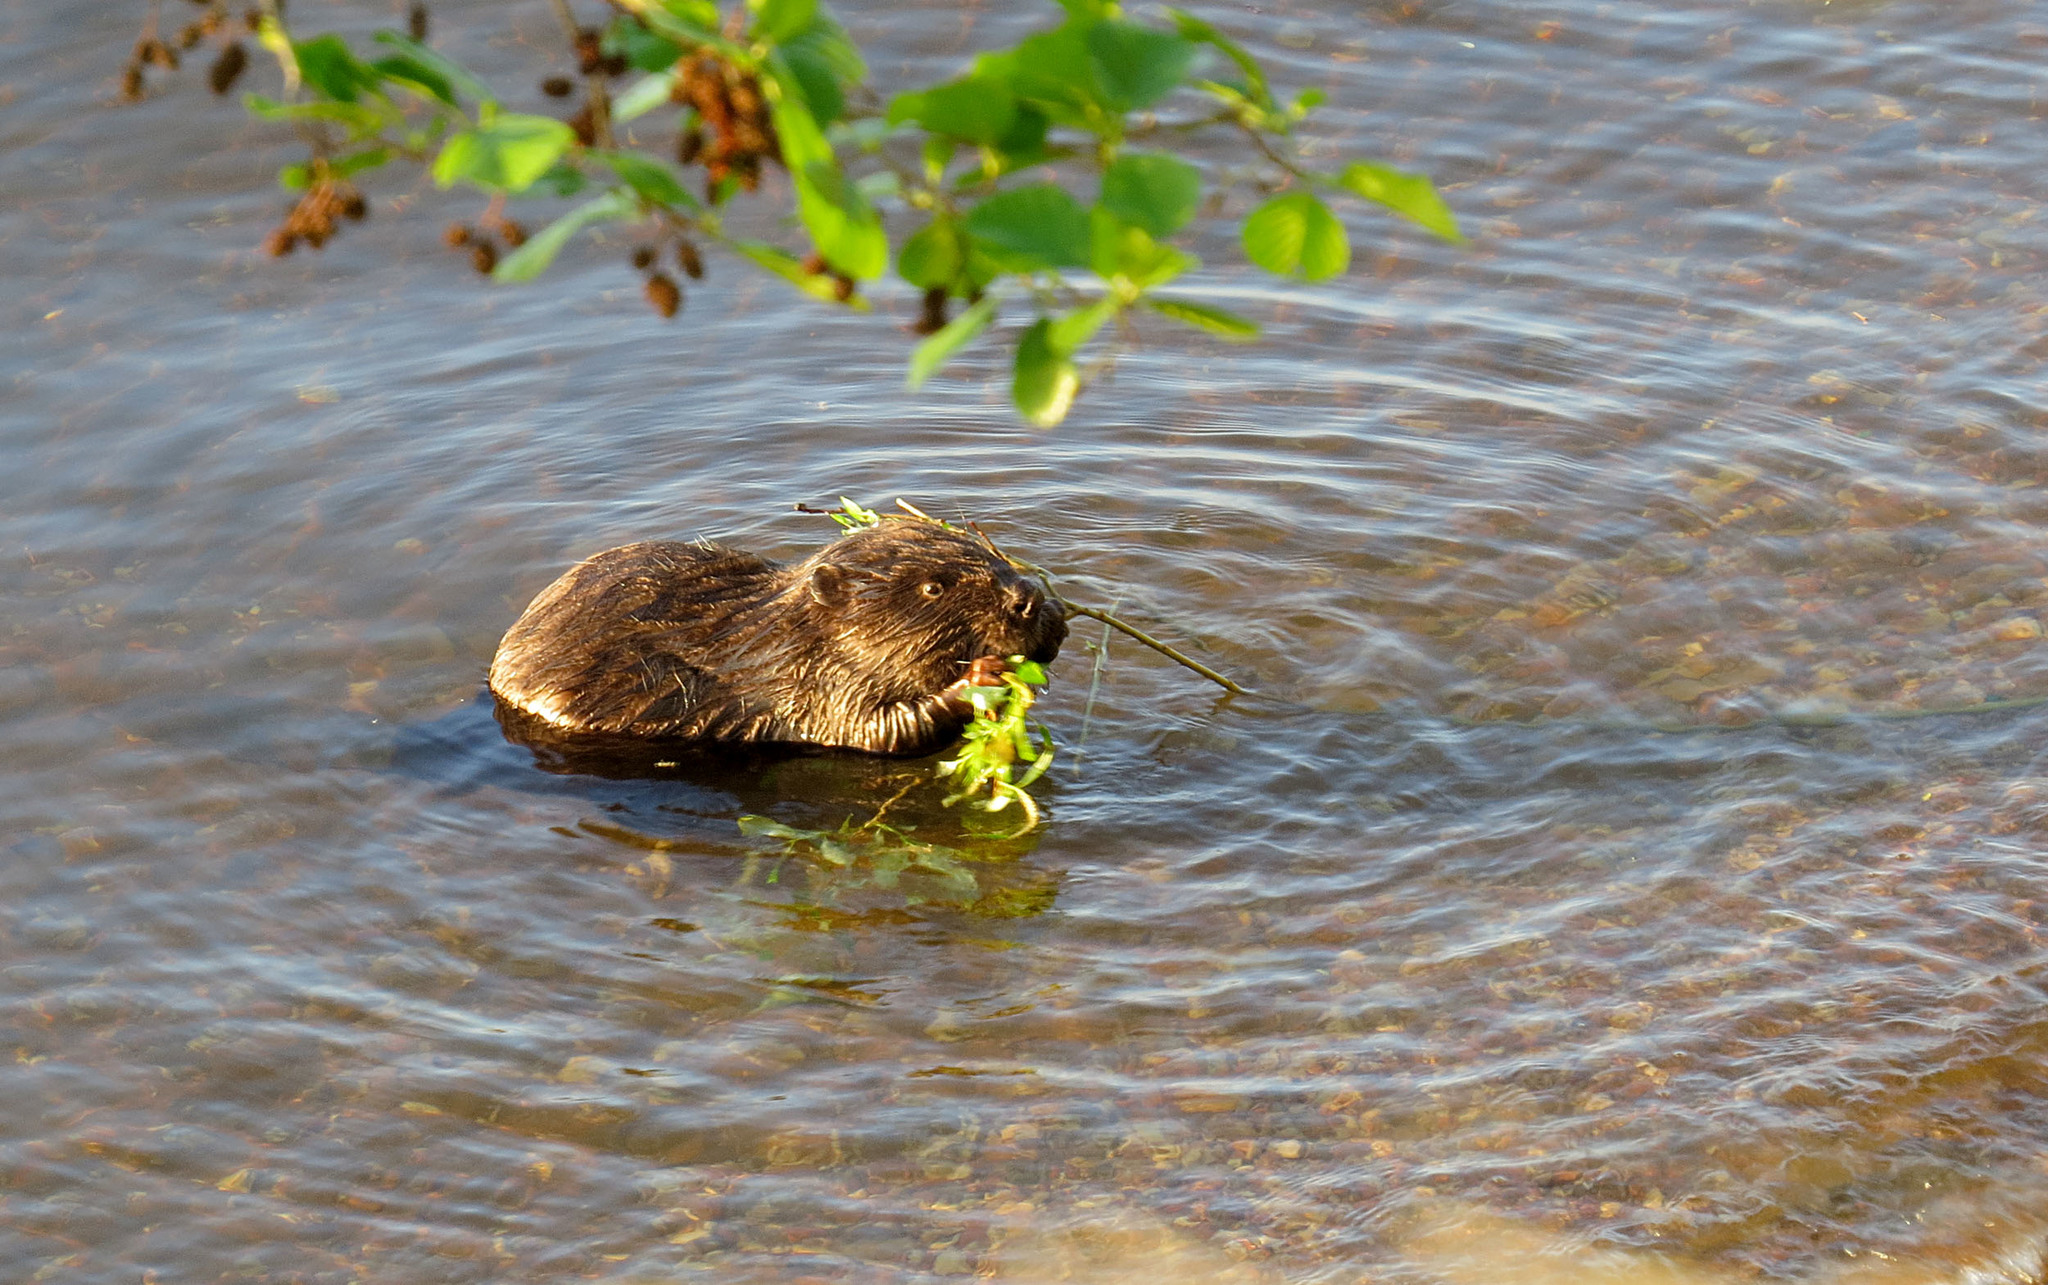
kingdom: Animalia
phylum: Chordata
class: Mammalia
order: Rodentia
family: Castoridae
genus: Castor
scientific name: Castor fiber
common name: Eurasian beaver
